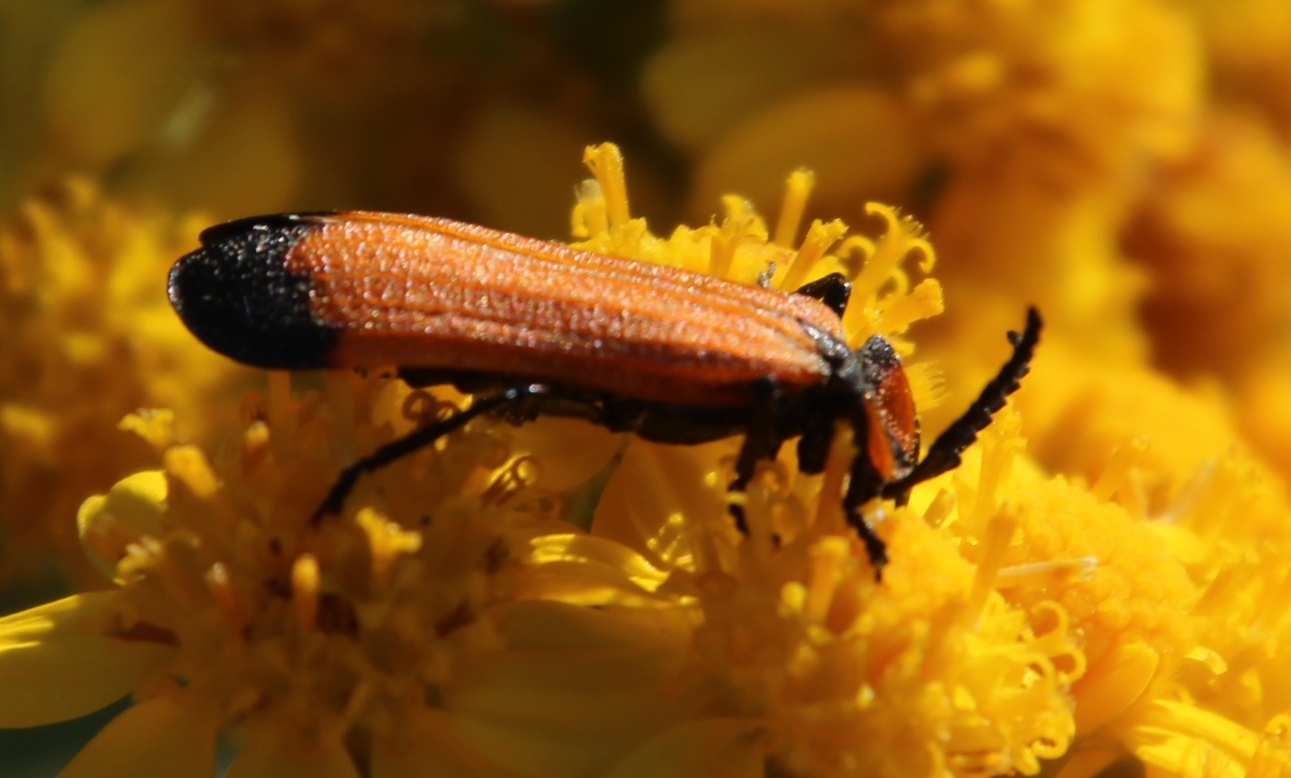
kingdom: Plantae
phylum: Tracheophyta
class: Magnoliopsida
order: Asterales
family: Asteraceae
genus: Senecio
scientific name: Senecio halimifolius
